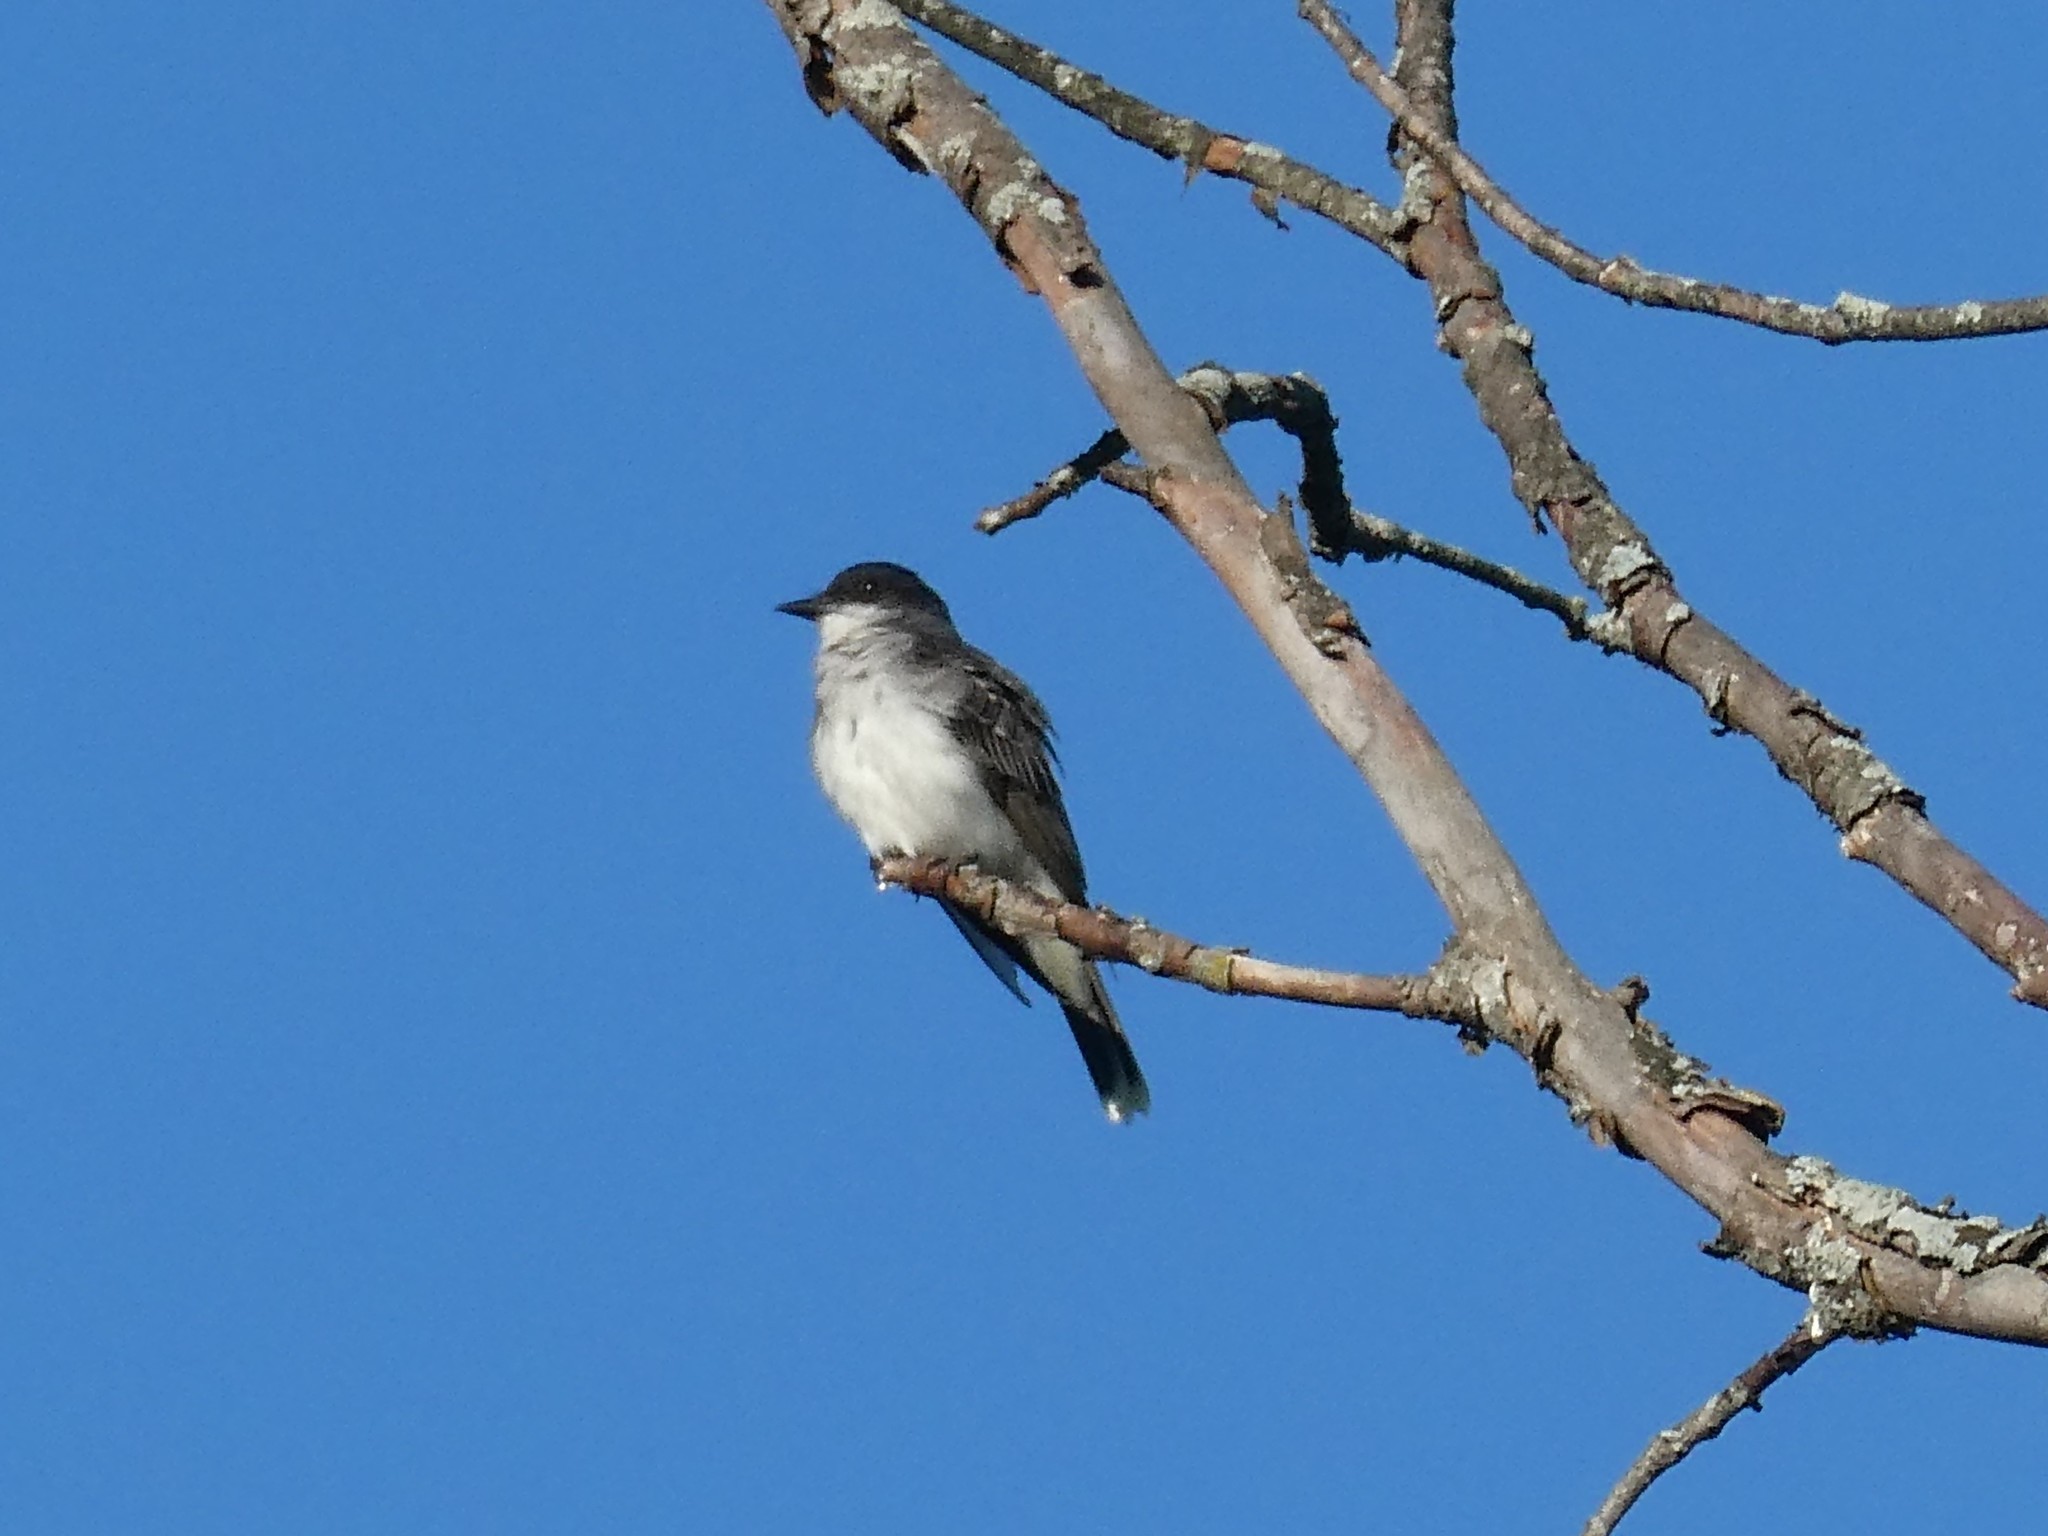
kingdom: Animalia
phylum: Chordata
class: Aves
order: Passeriformes
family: Tyrannidae
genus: Tyrannus
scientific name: Tyrannus tyrannus
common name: Eastern kingbird
